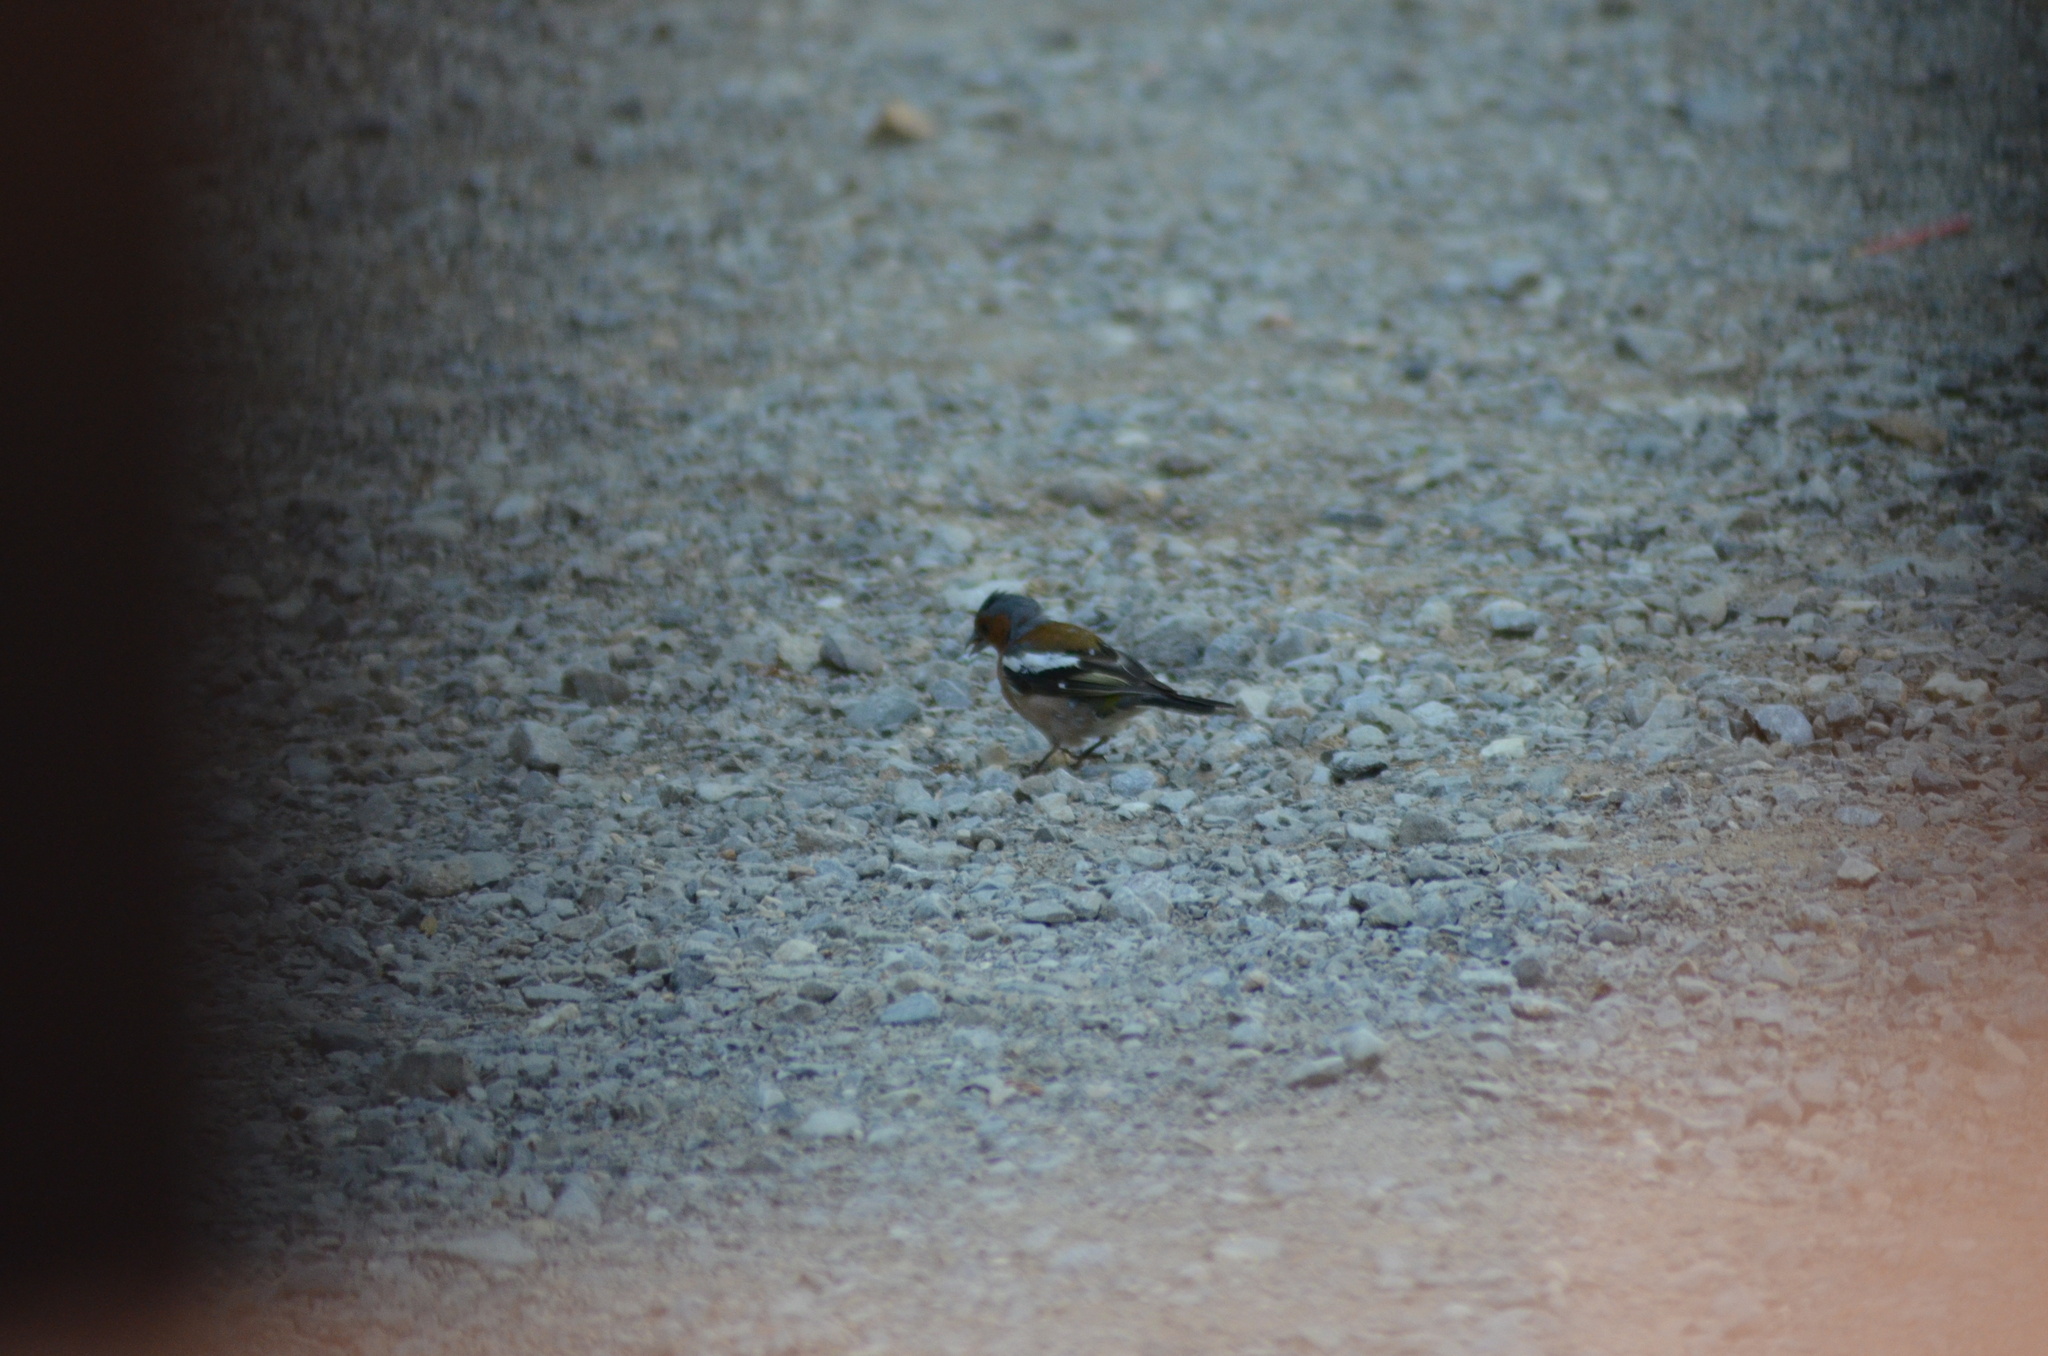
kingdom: Animalia
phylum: Chordata
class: Aves
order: Passeriformes
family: Fringillidae
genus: Fringilla
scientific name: Fringilla coelebs
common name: Common chaffinch
